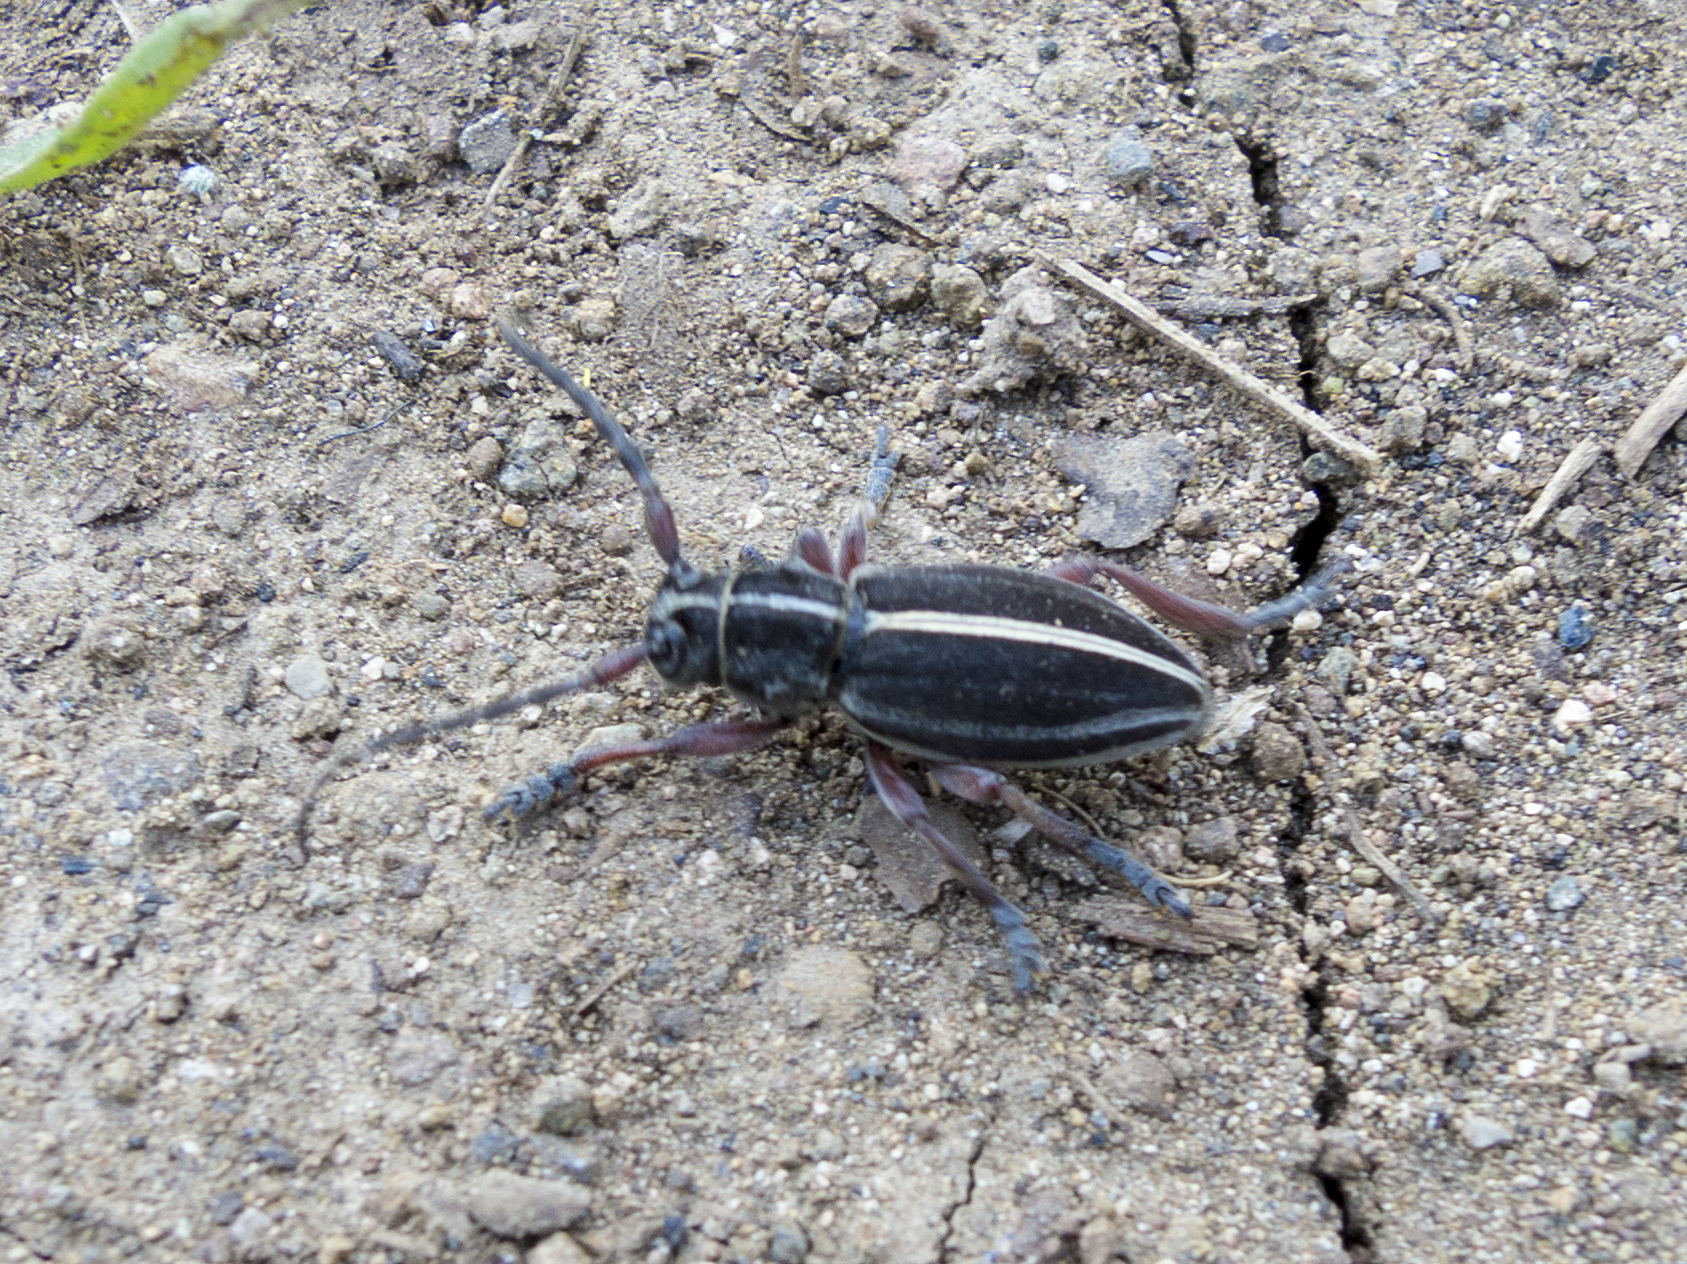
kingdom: Animalia
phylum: Arthropoda
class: Insecta
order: Coleoptera
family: Cerambycidae
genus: Dorcadion
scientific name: Dorcadion pedestre
